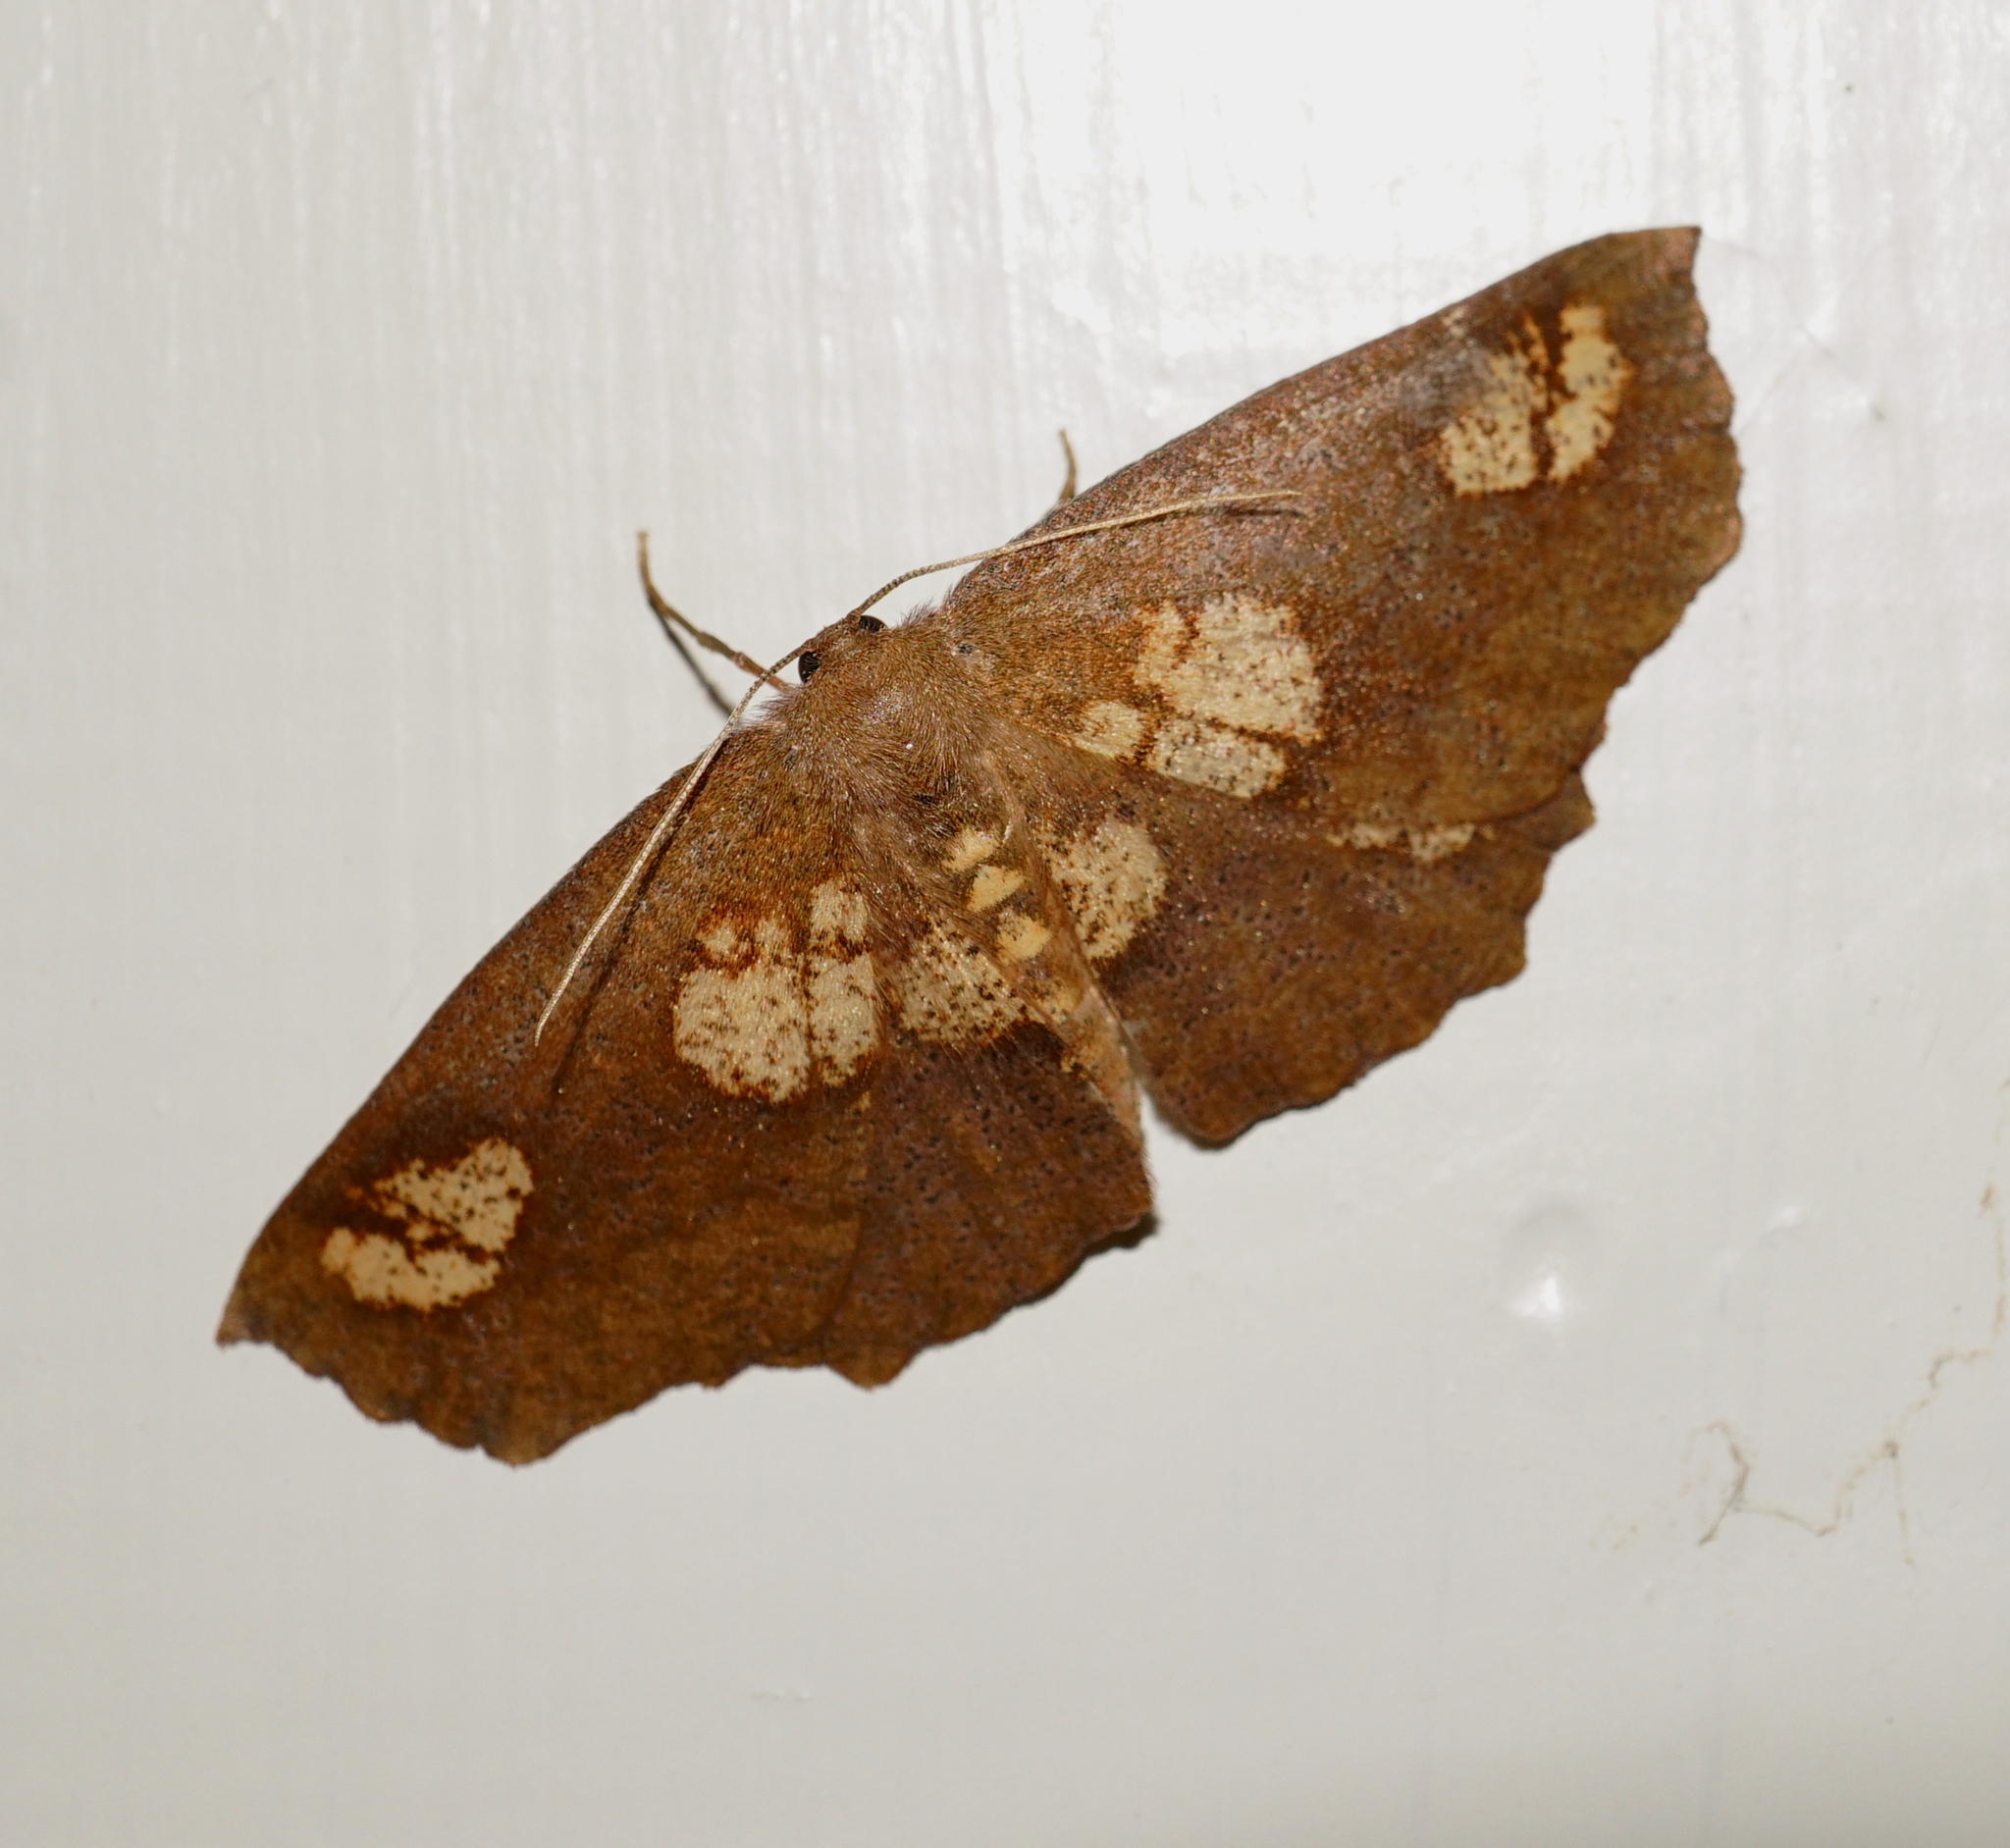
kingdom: Animalia
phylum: Arthropoda
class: Insecta
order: Lepidoptera
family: Geometridae
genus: Xyridacma
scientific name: Xyridacma ustaria
